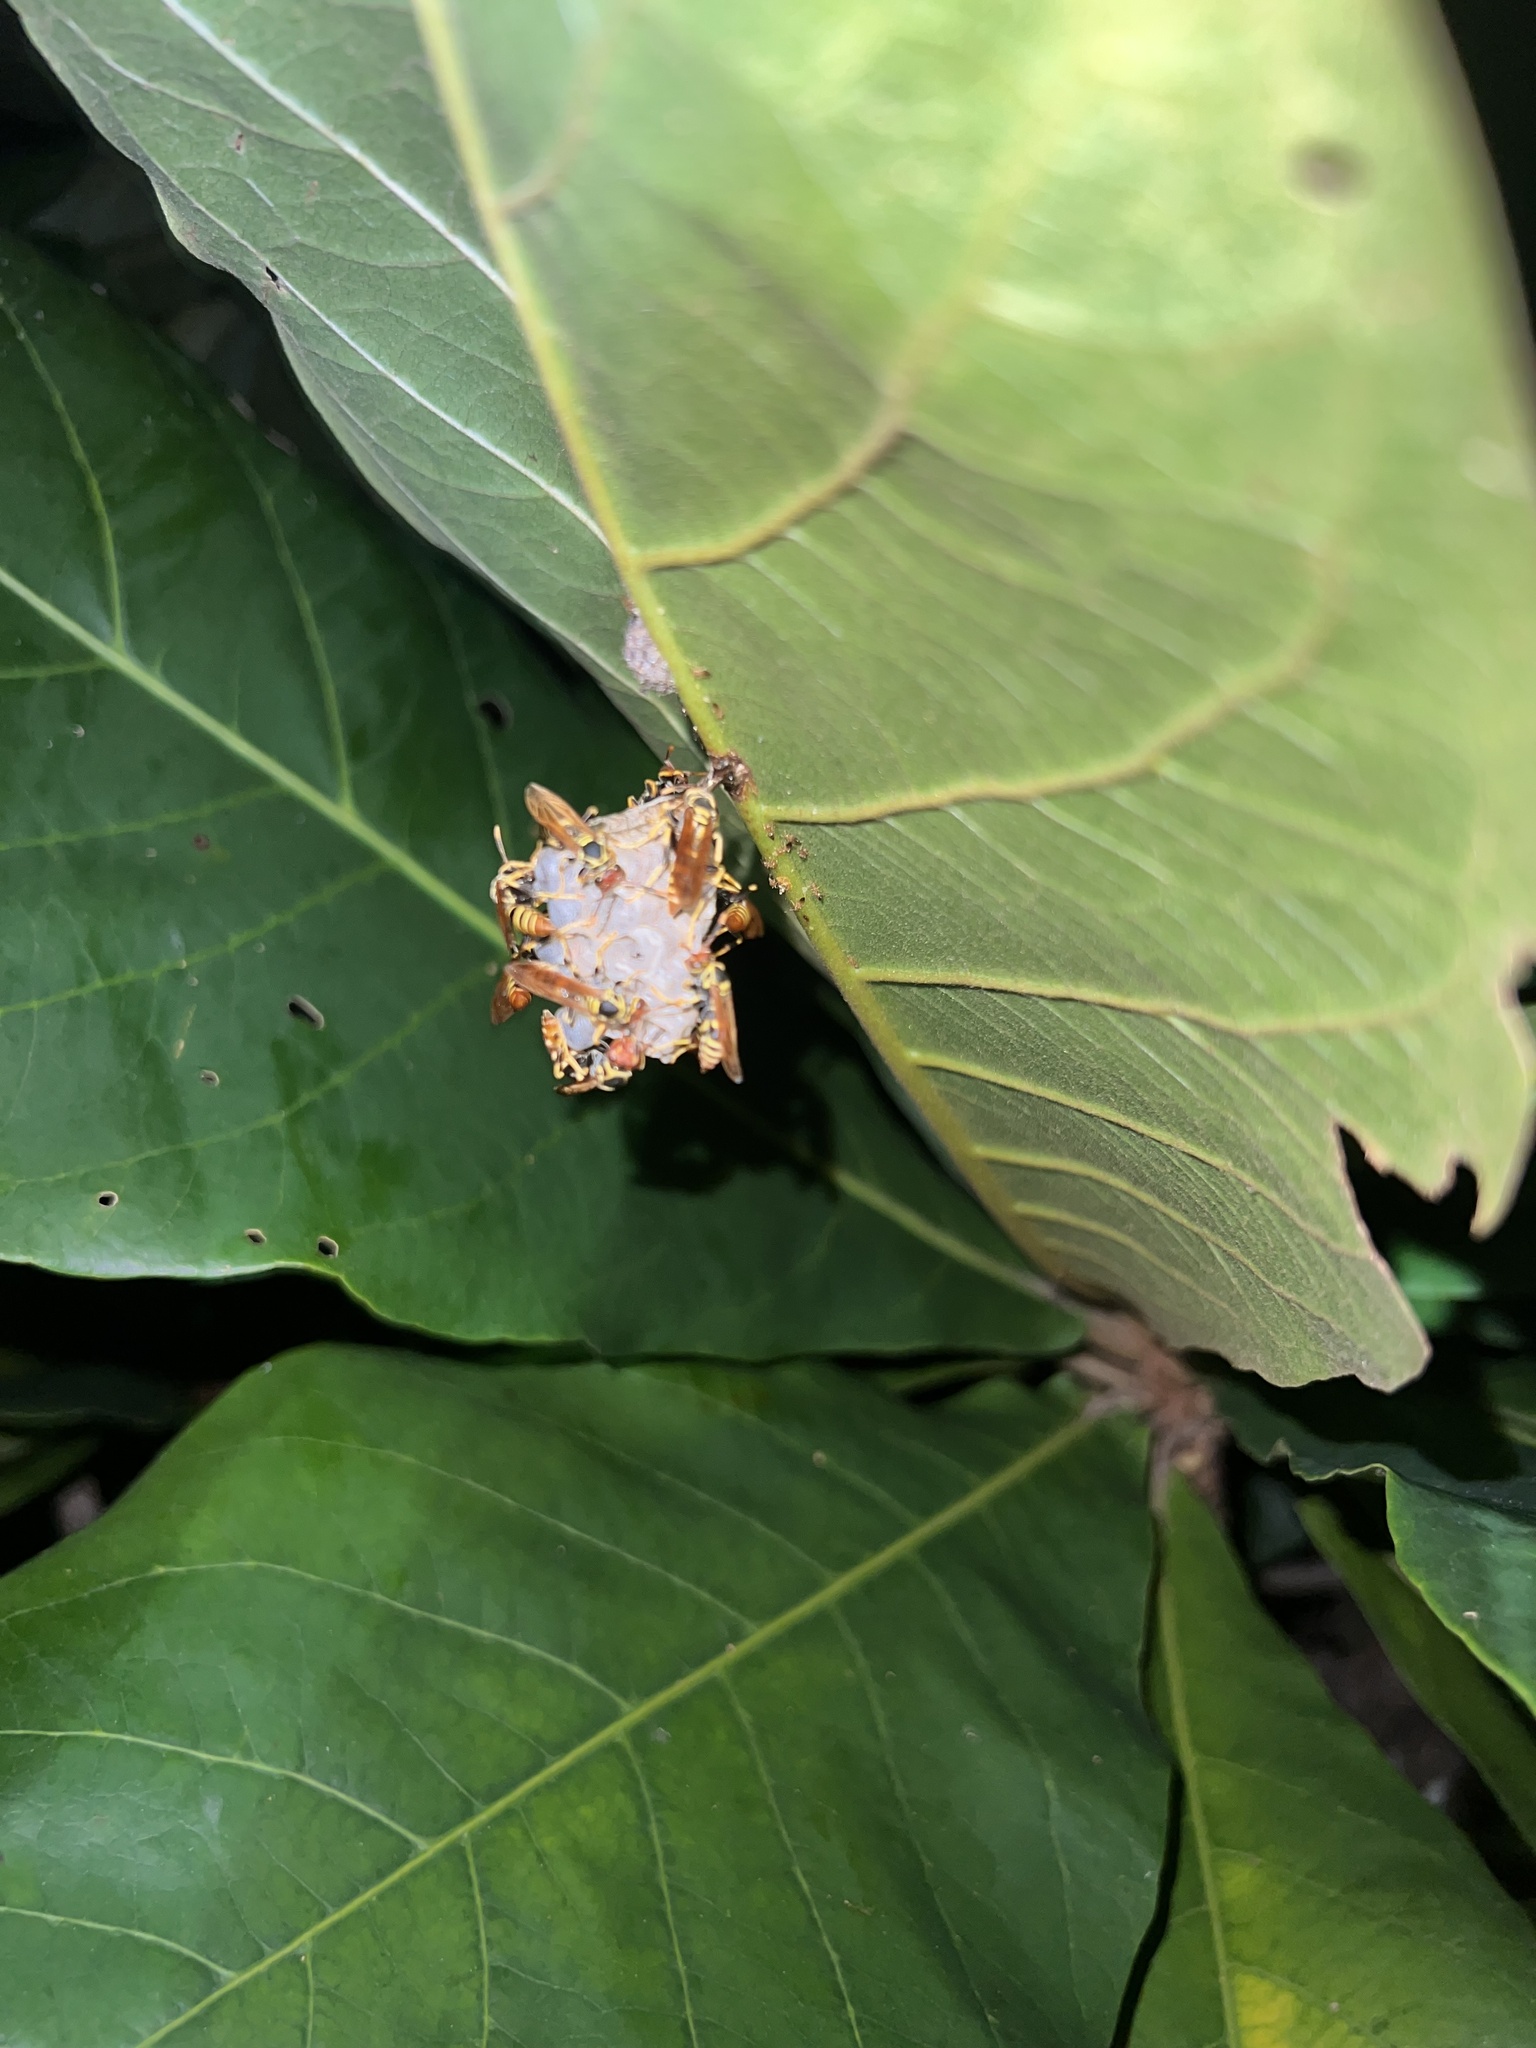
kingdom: Animalia
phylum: Arthropoda
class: Insecta
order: Hymenoptera
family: Eumenidae
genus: Polistes
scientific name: Polistes crinitus
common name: Jack spaniard
